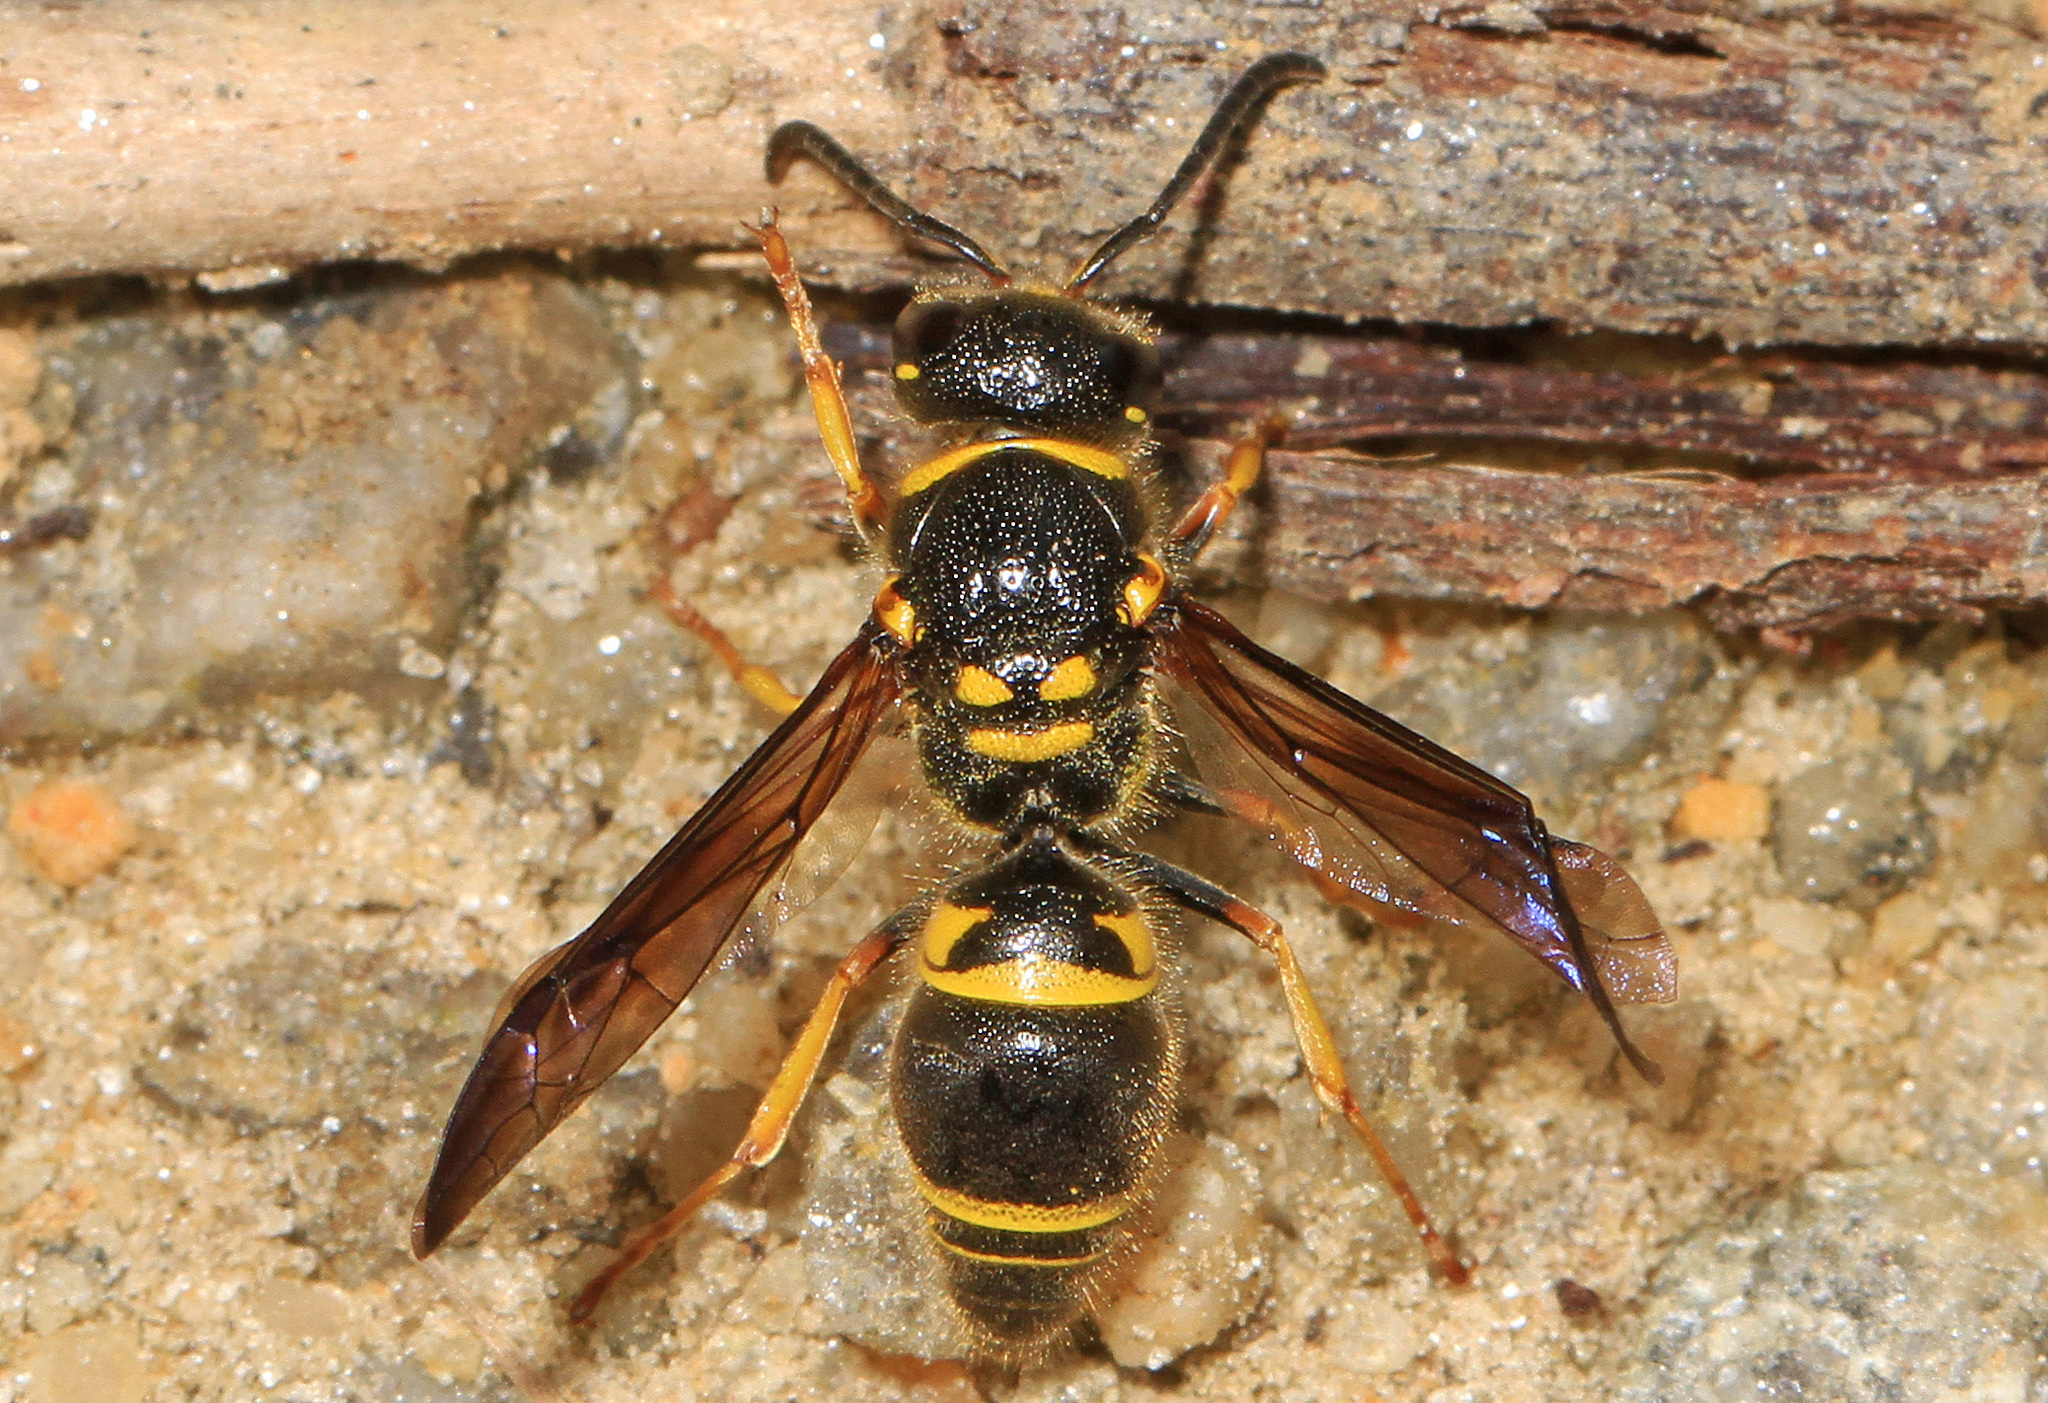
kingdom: Animalia
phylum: Arthropoda
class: Insecta
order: Hymenoptera
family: Vespidae
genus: Ancistrocerus
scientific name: Ancistrocerus campestris
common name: Smiling mason wasp
